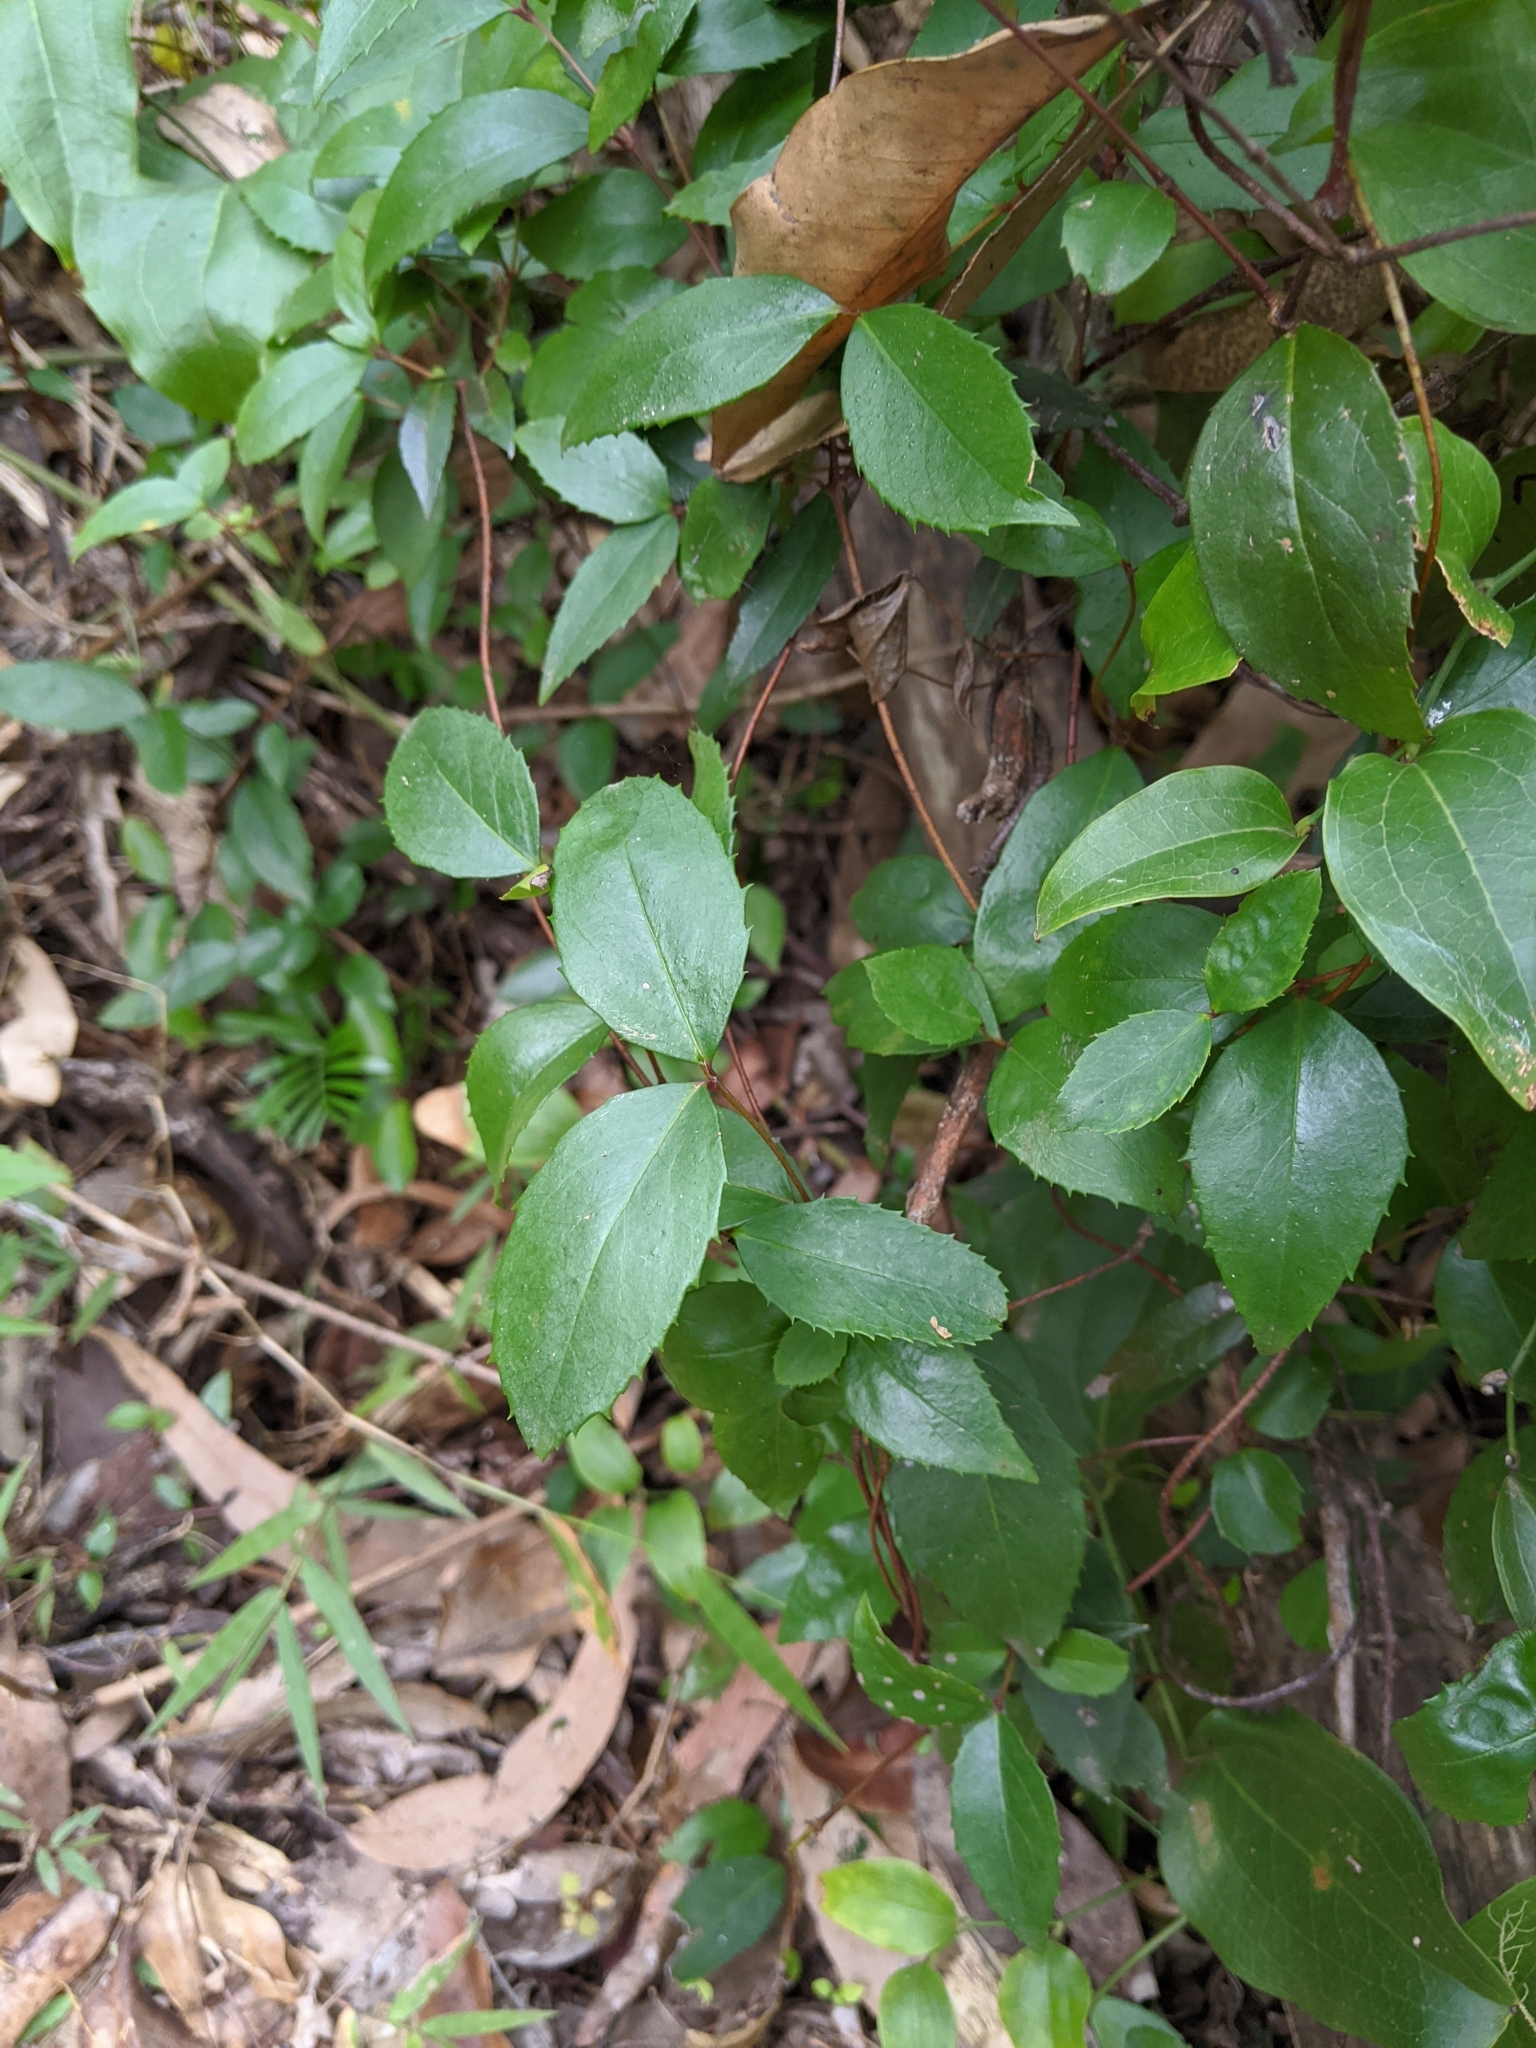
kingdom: Plantae
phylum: Tracheophyta
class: Magnoliopsida
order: Saxifragales
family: Aphanopetalaceae
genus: Aphanopetalum
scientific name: Aphanopetalum resinosum
